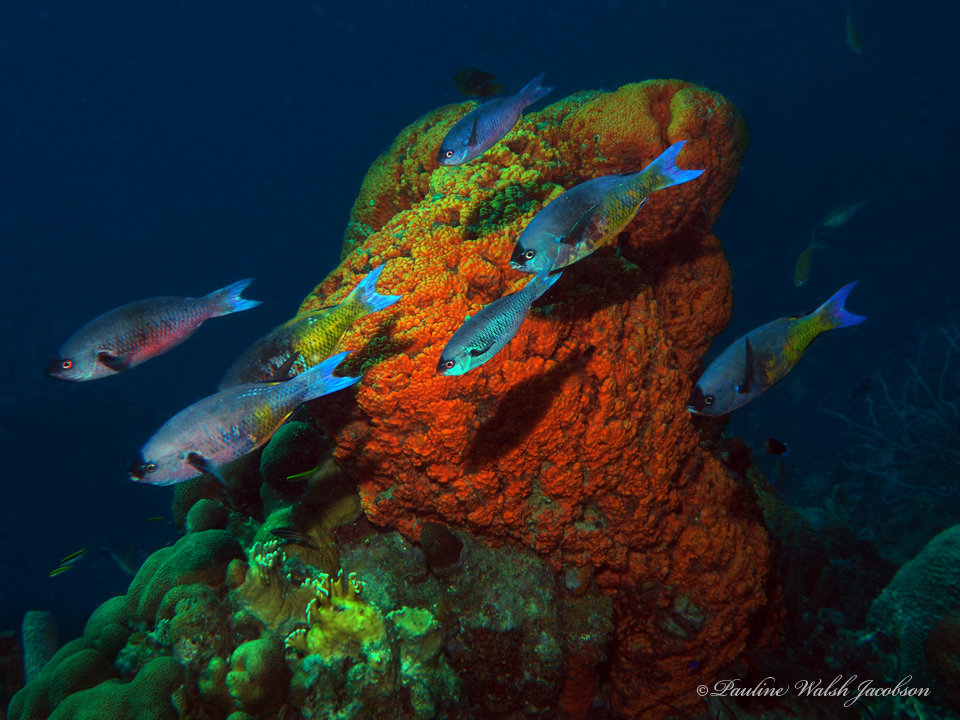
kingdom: Animalia
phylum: Chordata
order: Perciformes
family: Labridae
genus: Bodianus
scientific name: Bodianus
